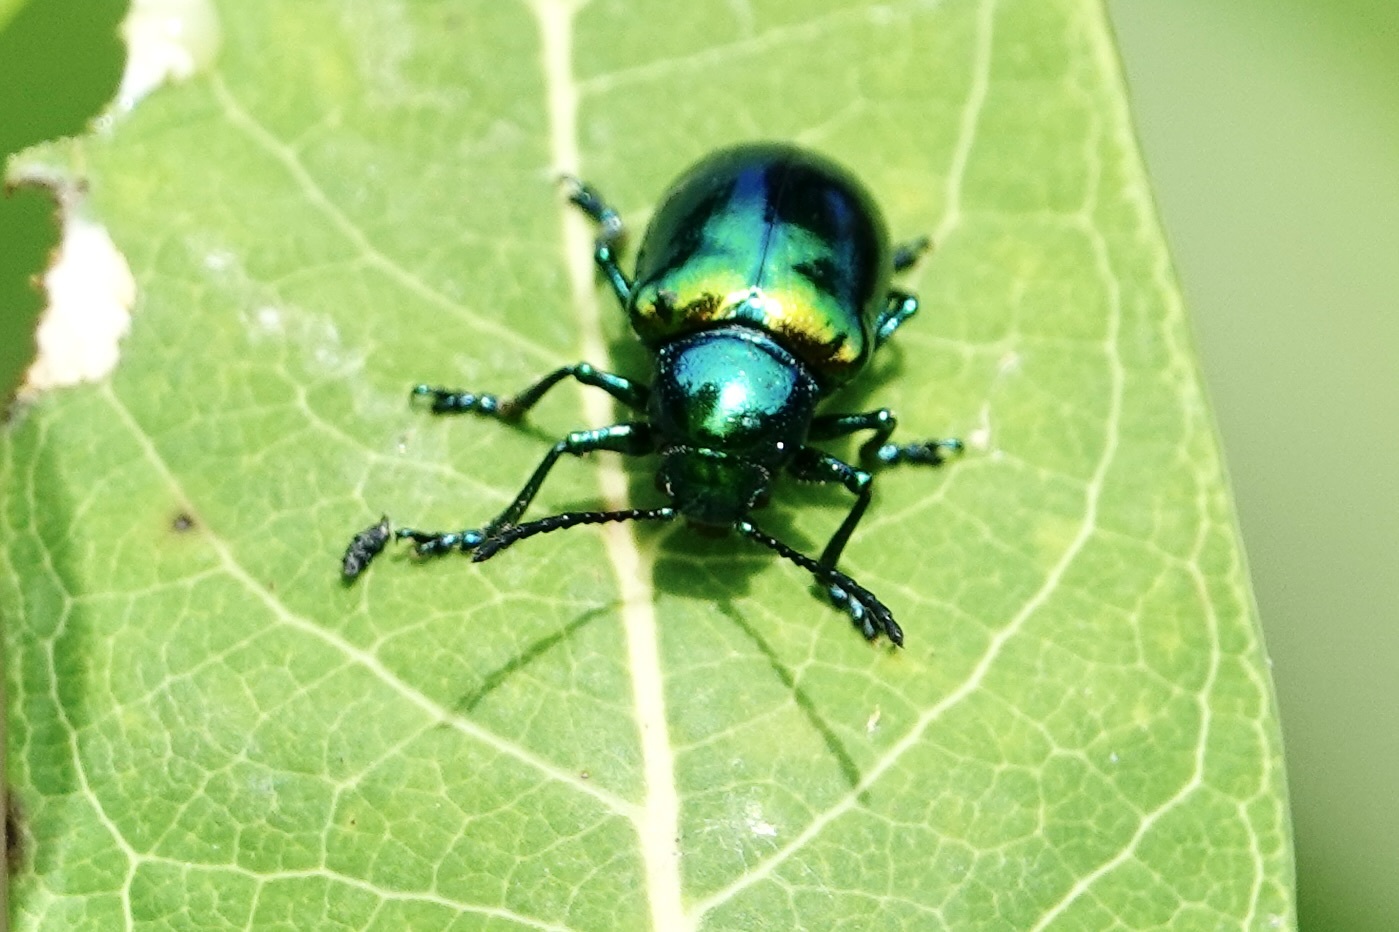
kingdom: Animalia
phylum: Arthropoda
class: Insecta
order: Coleoptera
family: Chrysomelidae
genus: Chrysochus
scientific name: Chrysochus auratus
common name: Dogbane leaf beetle
